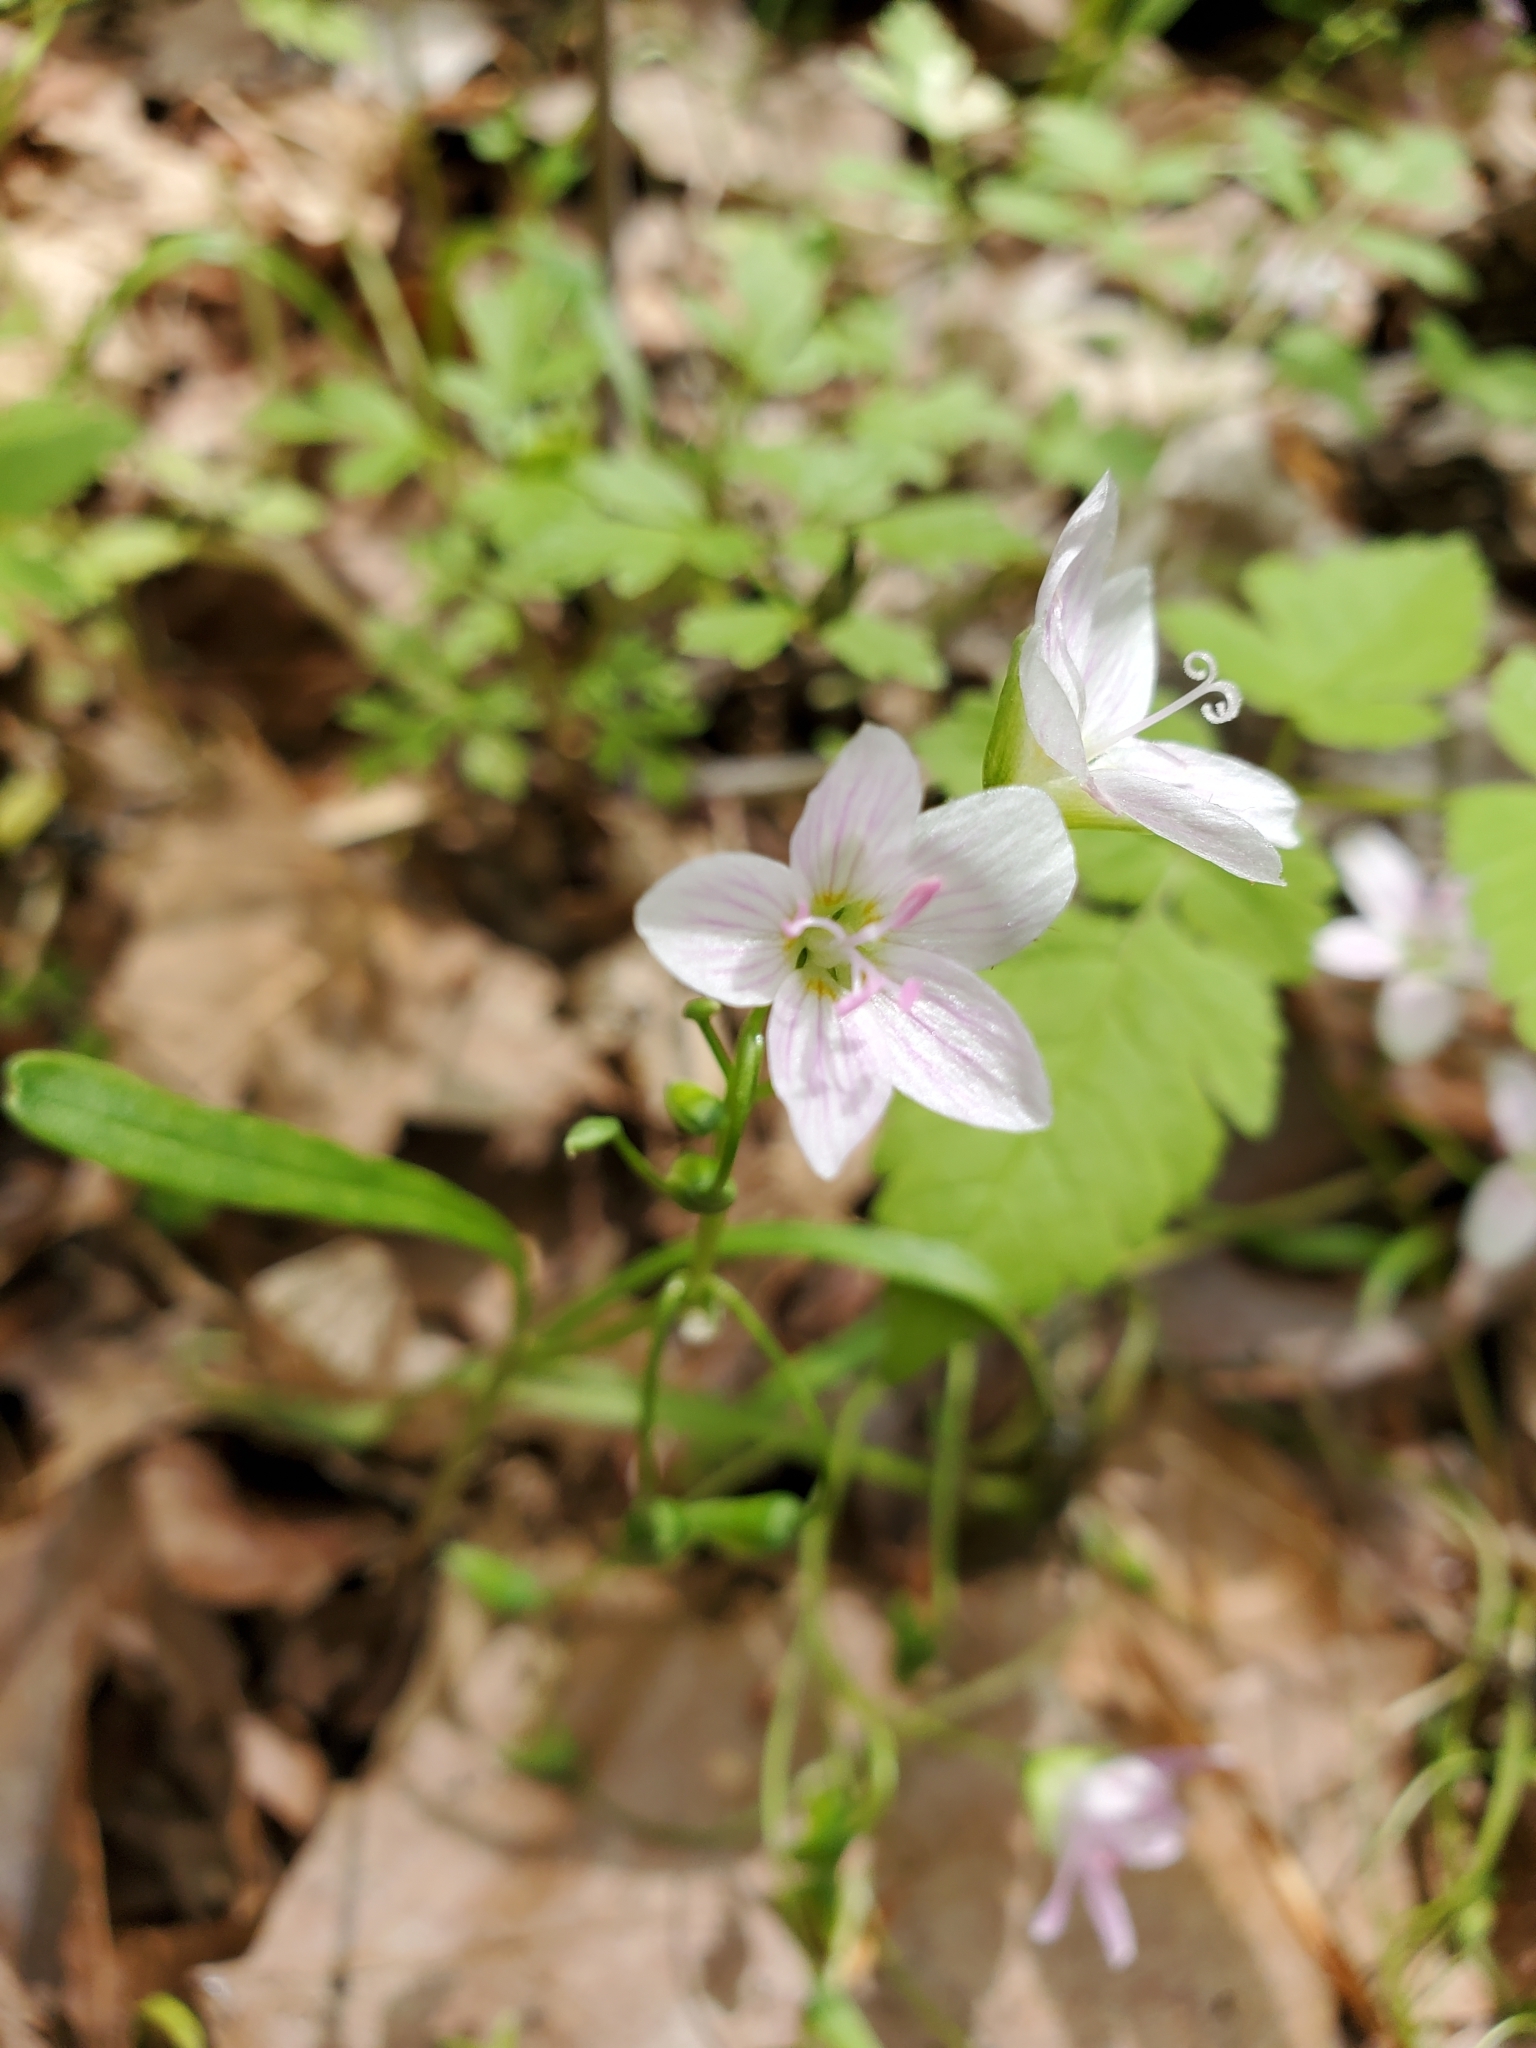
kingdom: Plantae
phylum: Tracheophyta
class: Magnoliopsida
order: Caryophyllales
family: Montiaceae
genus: Claytonia
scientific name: Claytonia virginica
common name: Virginia springbeauty
